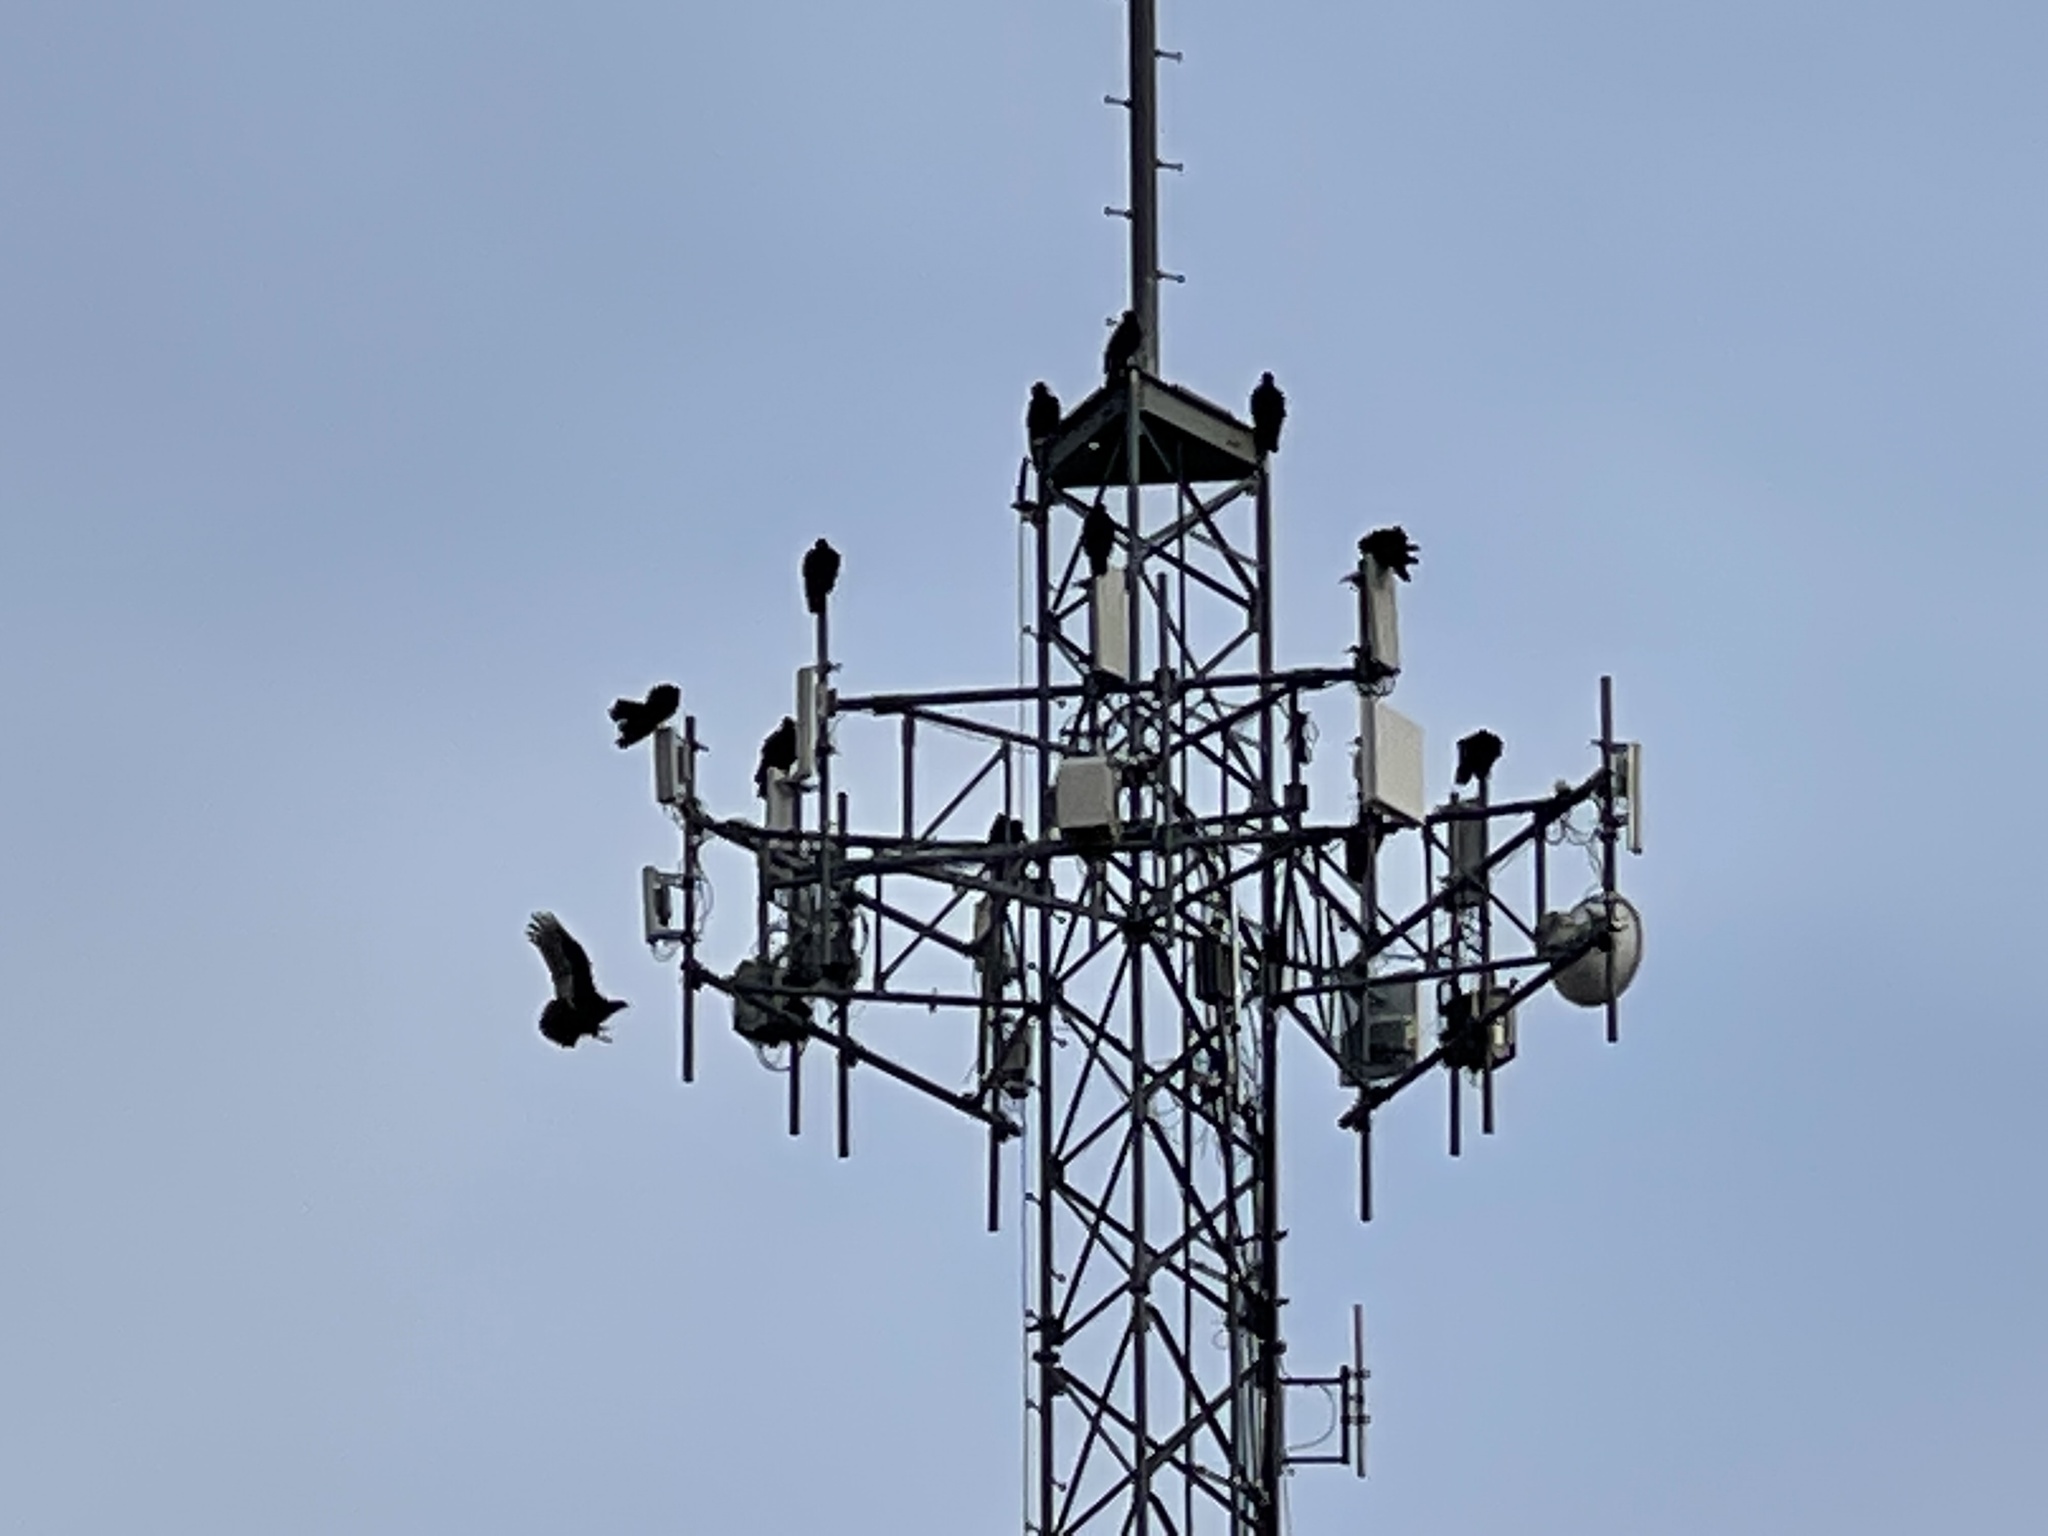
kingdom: Animalia
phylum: Chordata
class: Aves
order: Accipitriformes
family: Cathartidae
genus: Cathartes
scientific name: Cathartes aura
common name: Turkey vulture
